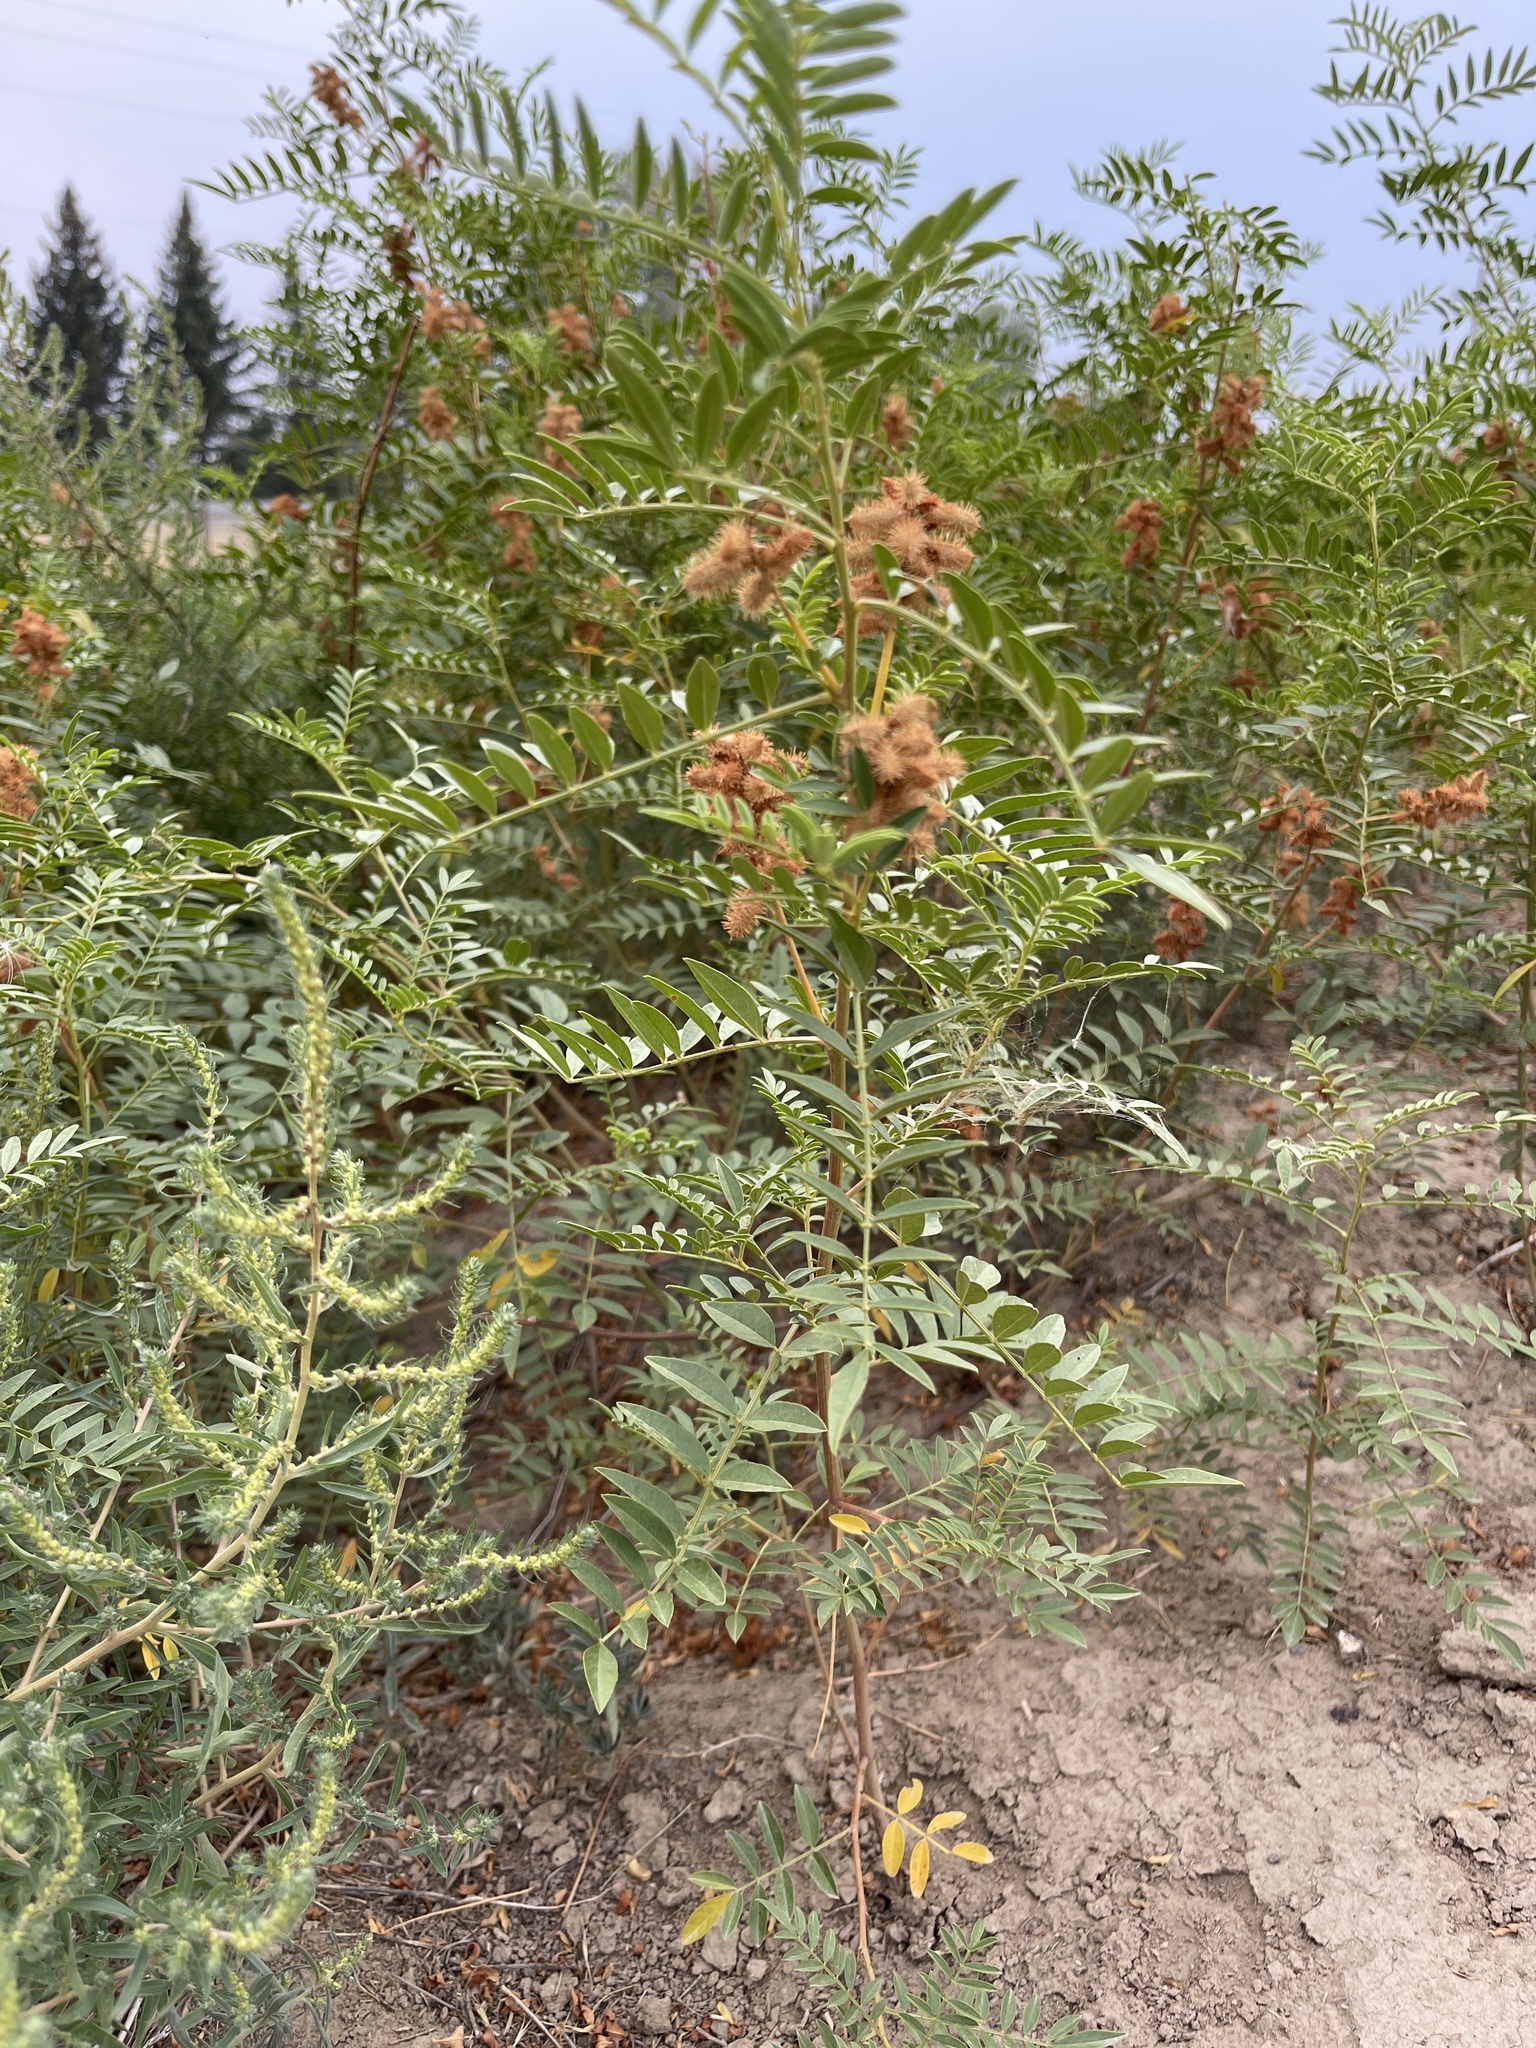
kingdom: Plantae
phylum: Tracheophyta
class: Magnoliopsida
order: Fabales
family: Fabaceae
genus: Glycyrrhiza
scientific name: Glycyrrhiza lepidota
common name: American liquorice
